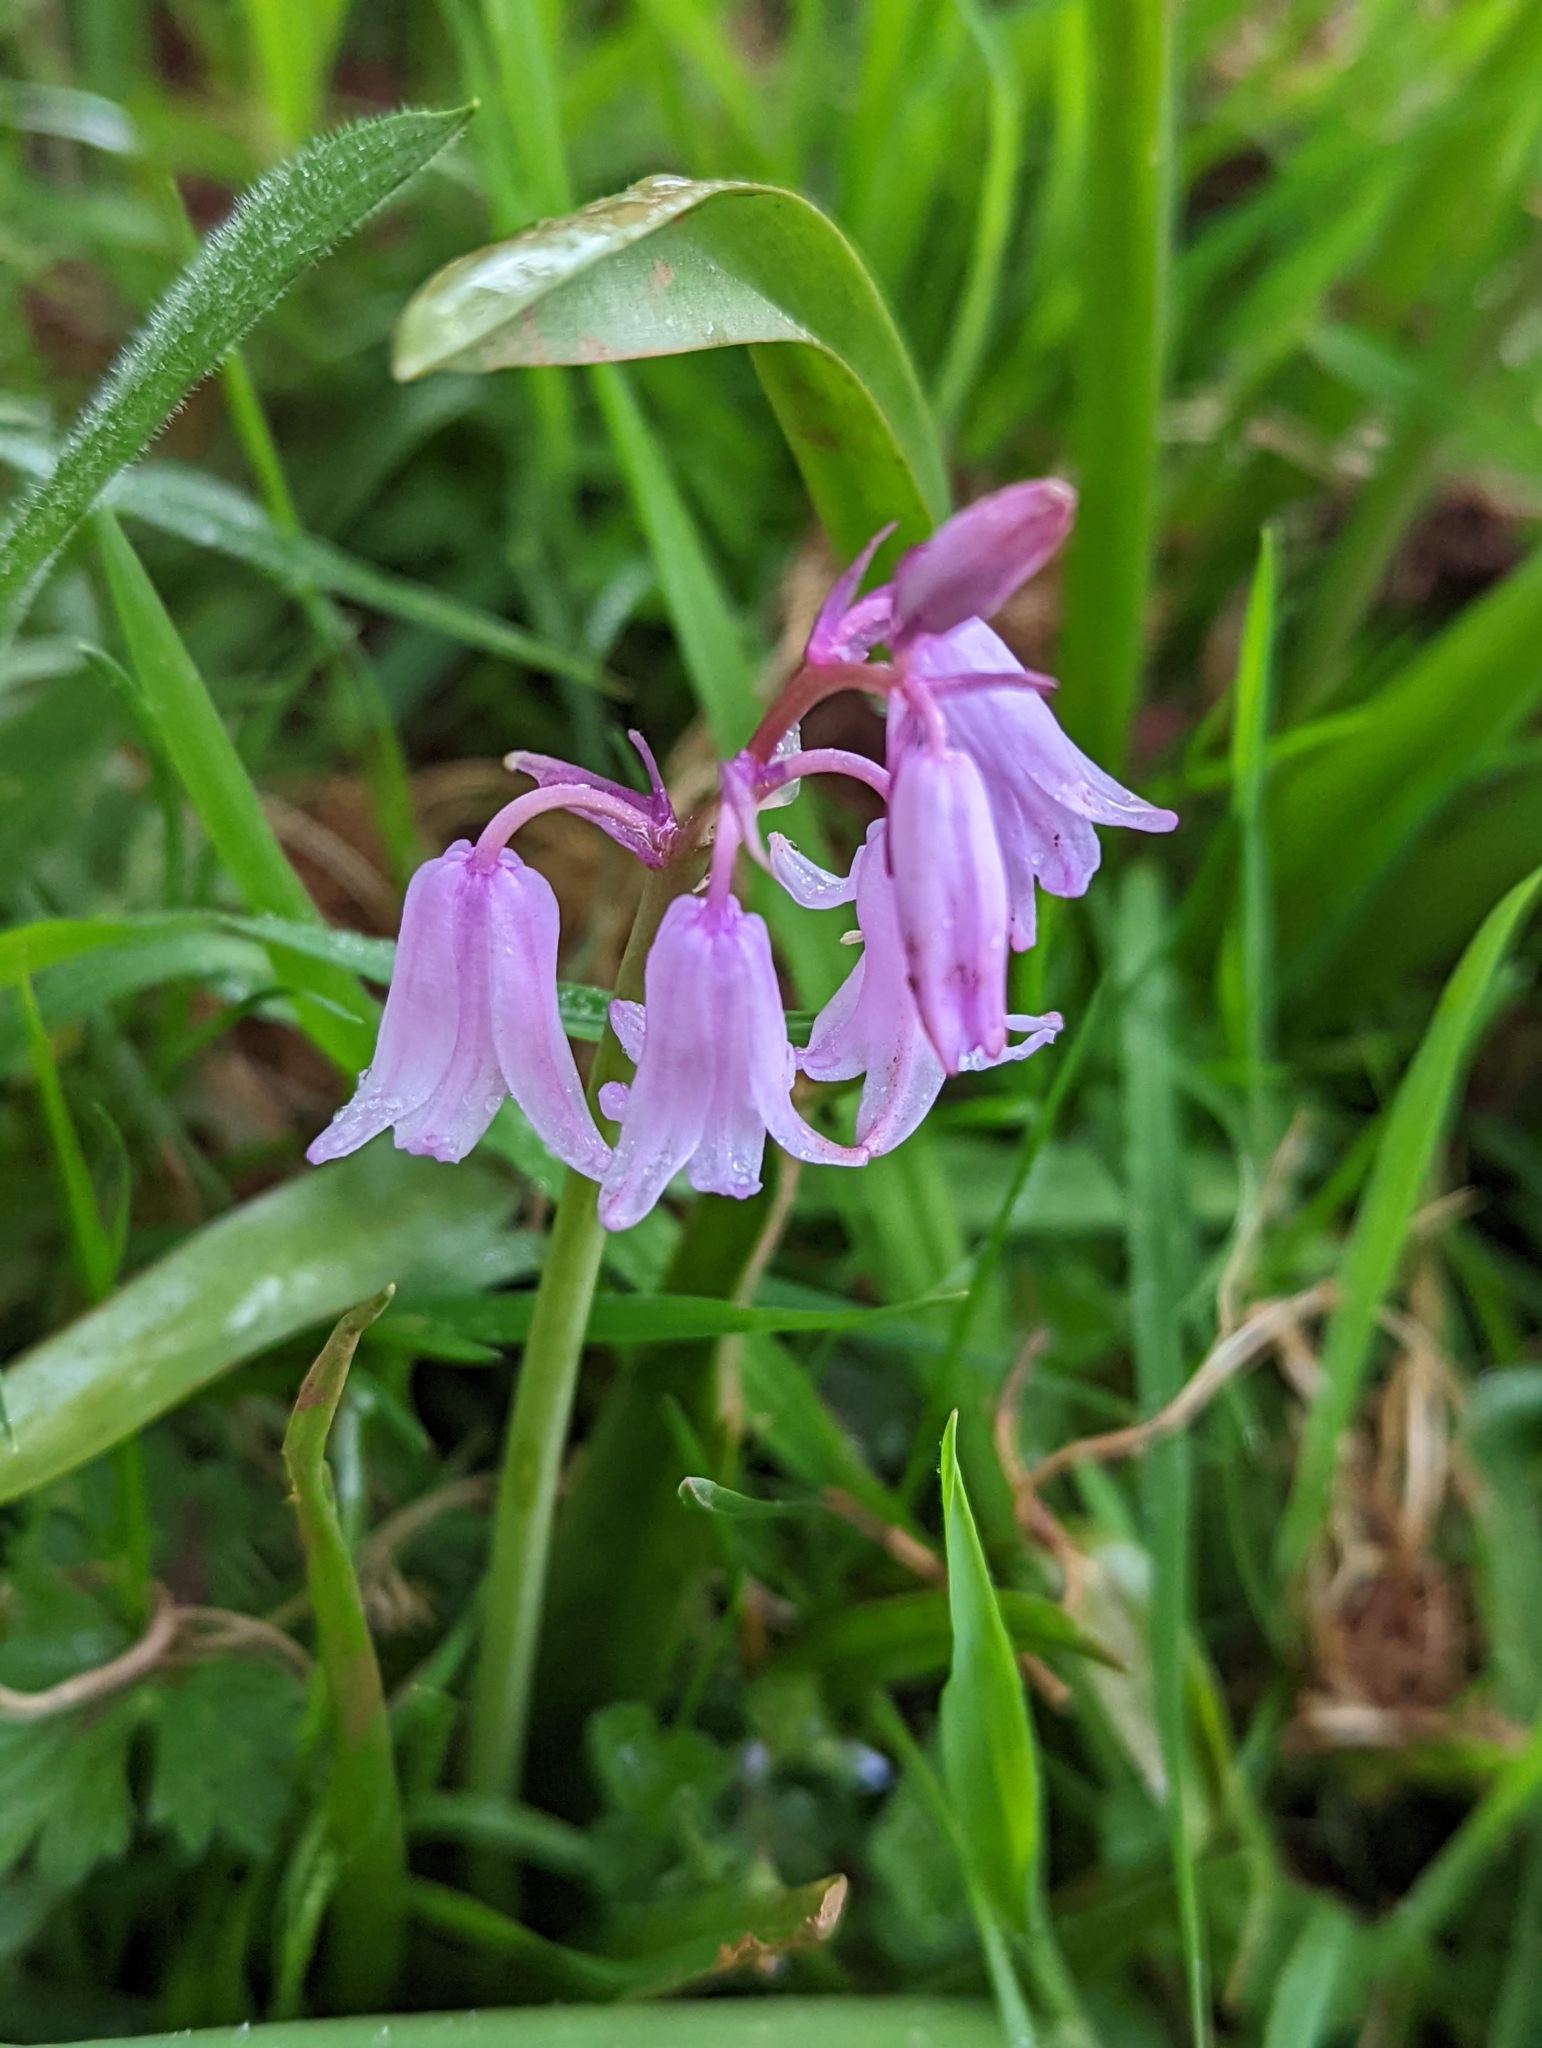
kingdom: Plantae
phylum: Tracheophyta
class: Liliopsida
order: Asparagales
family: Asparagaceae
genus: Hyacinthoides
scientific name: Hyacinthoides hispanica
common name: Spanish bluebell
